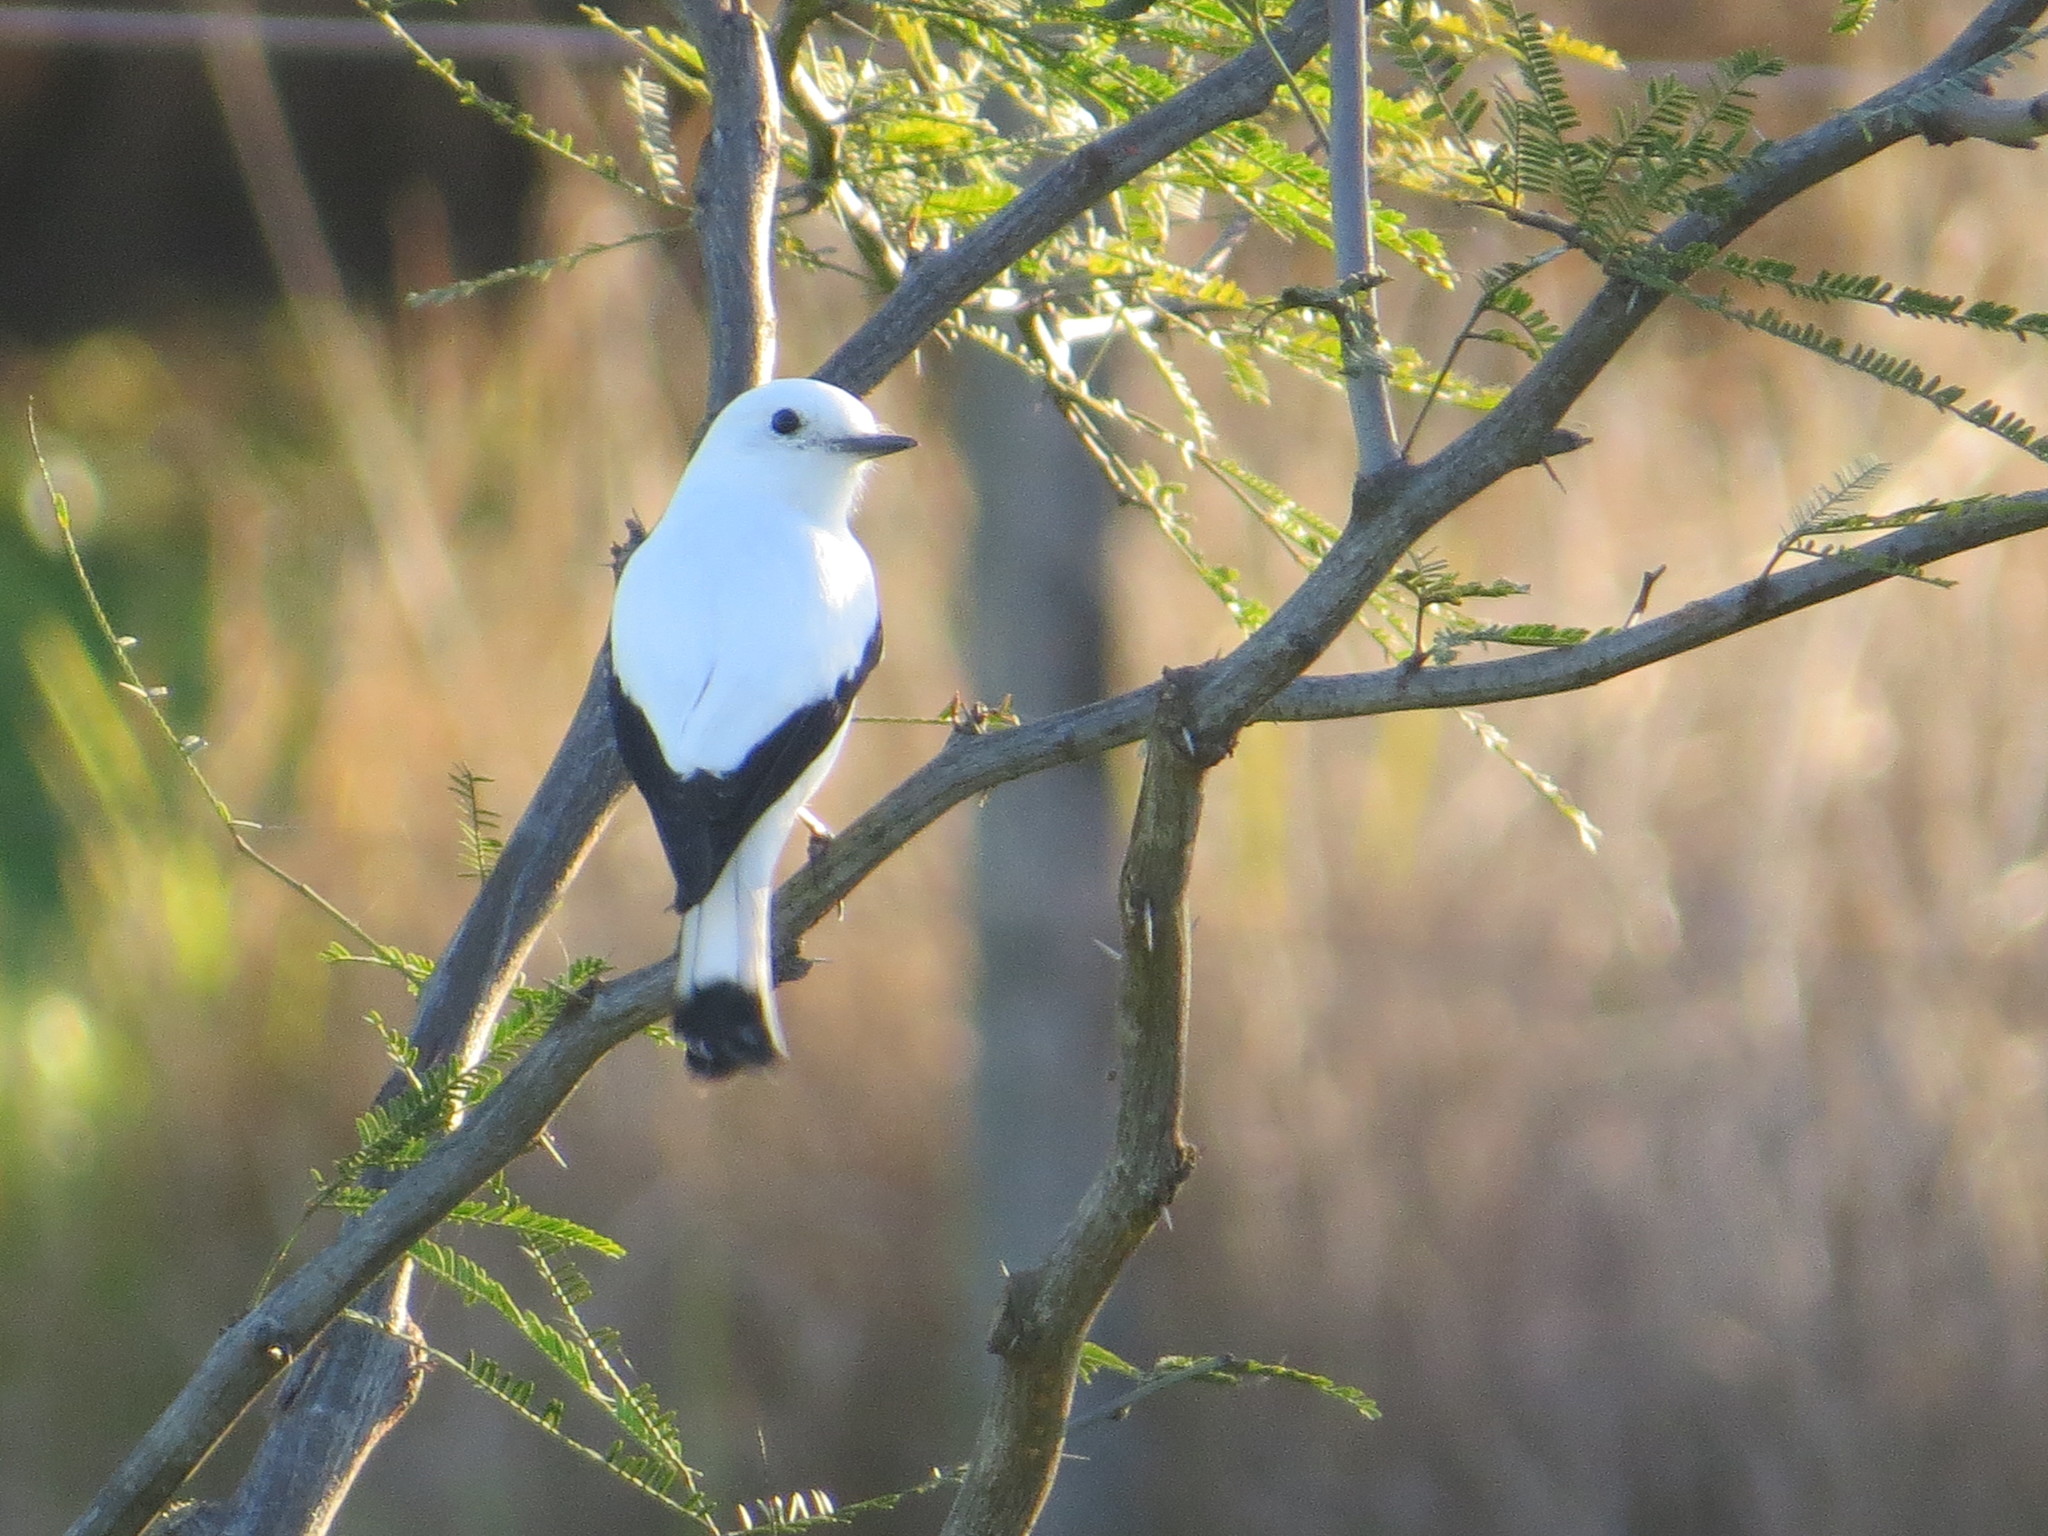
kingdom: Animalia
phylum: Chordata
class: Aves
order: Passeriformes
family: Tyrannidae
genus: Xolmis
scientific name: Xolmis irupero
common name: White monjita
